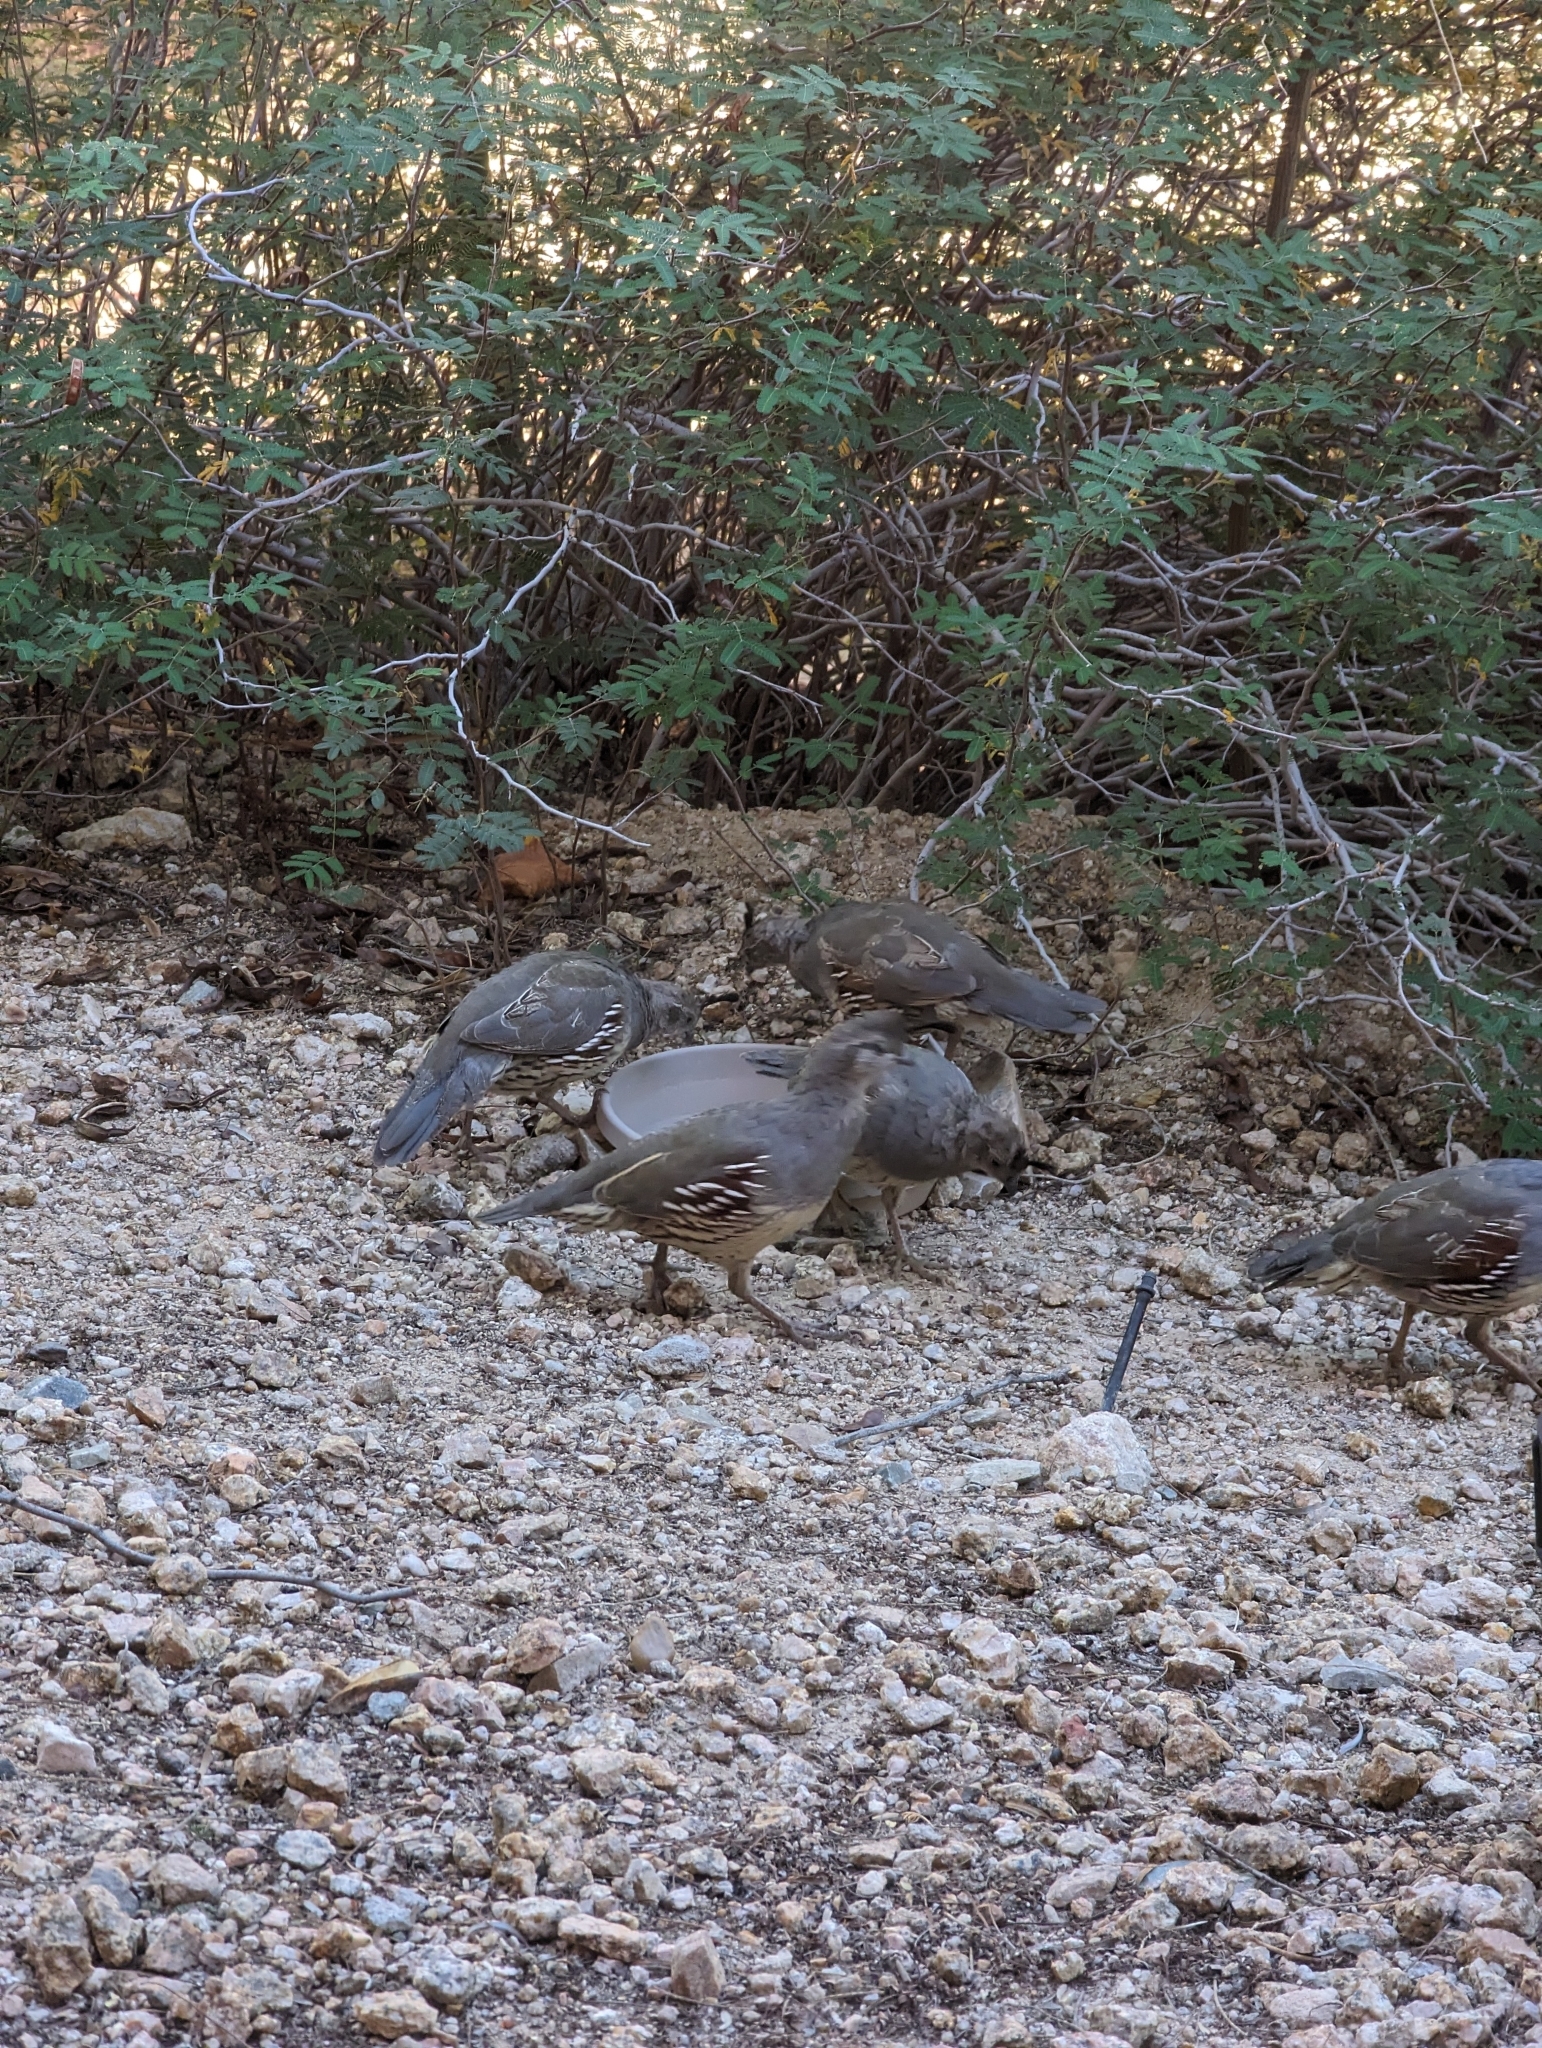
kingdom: Animalia
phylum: Chordata
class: Aves
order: Galliformes
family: Odontophoridae
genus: Callipepla
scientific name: Callipepla gambelii
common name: Gambel's quail
